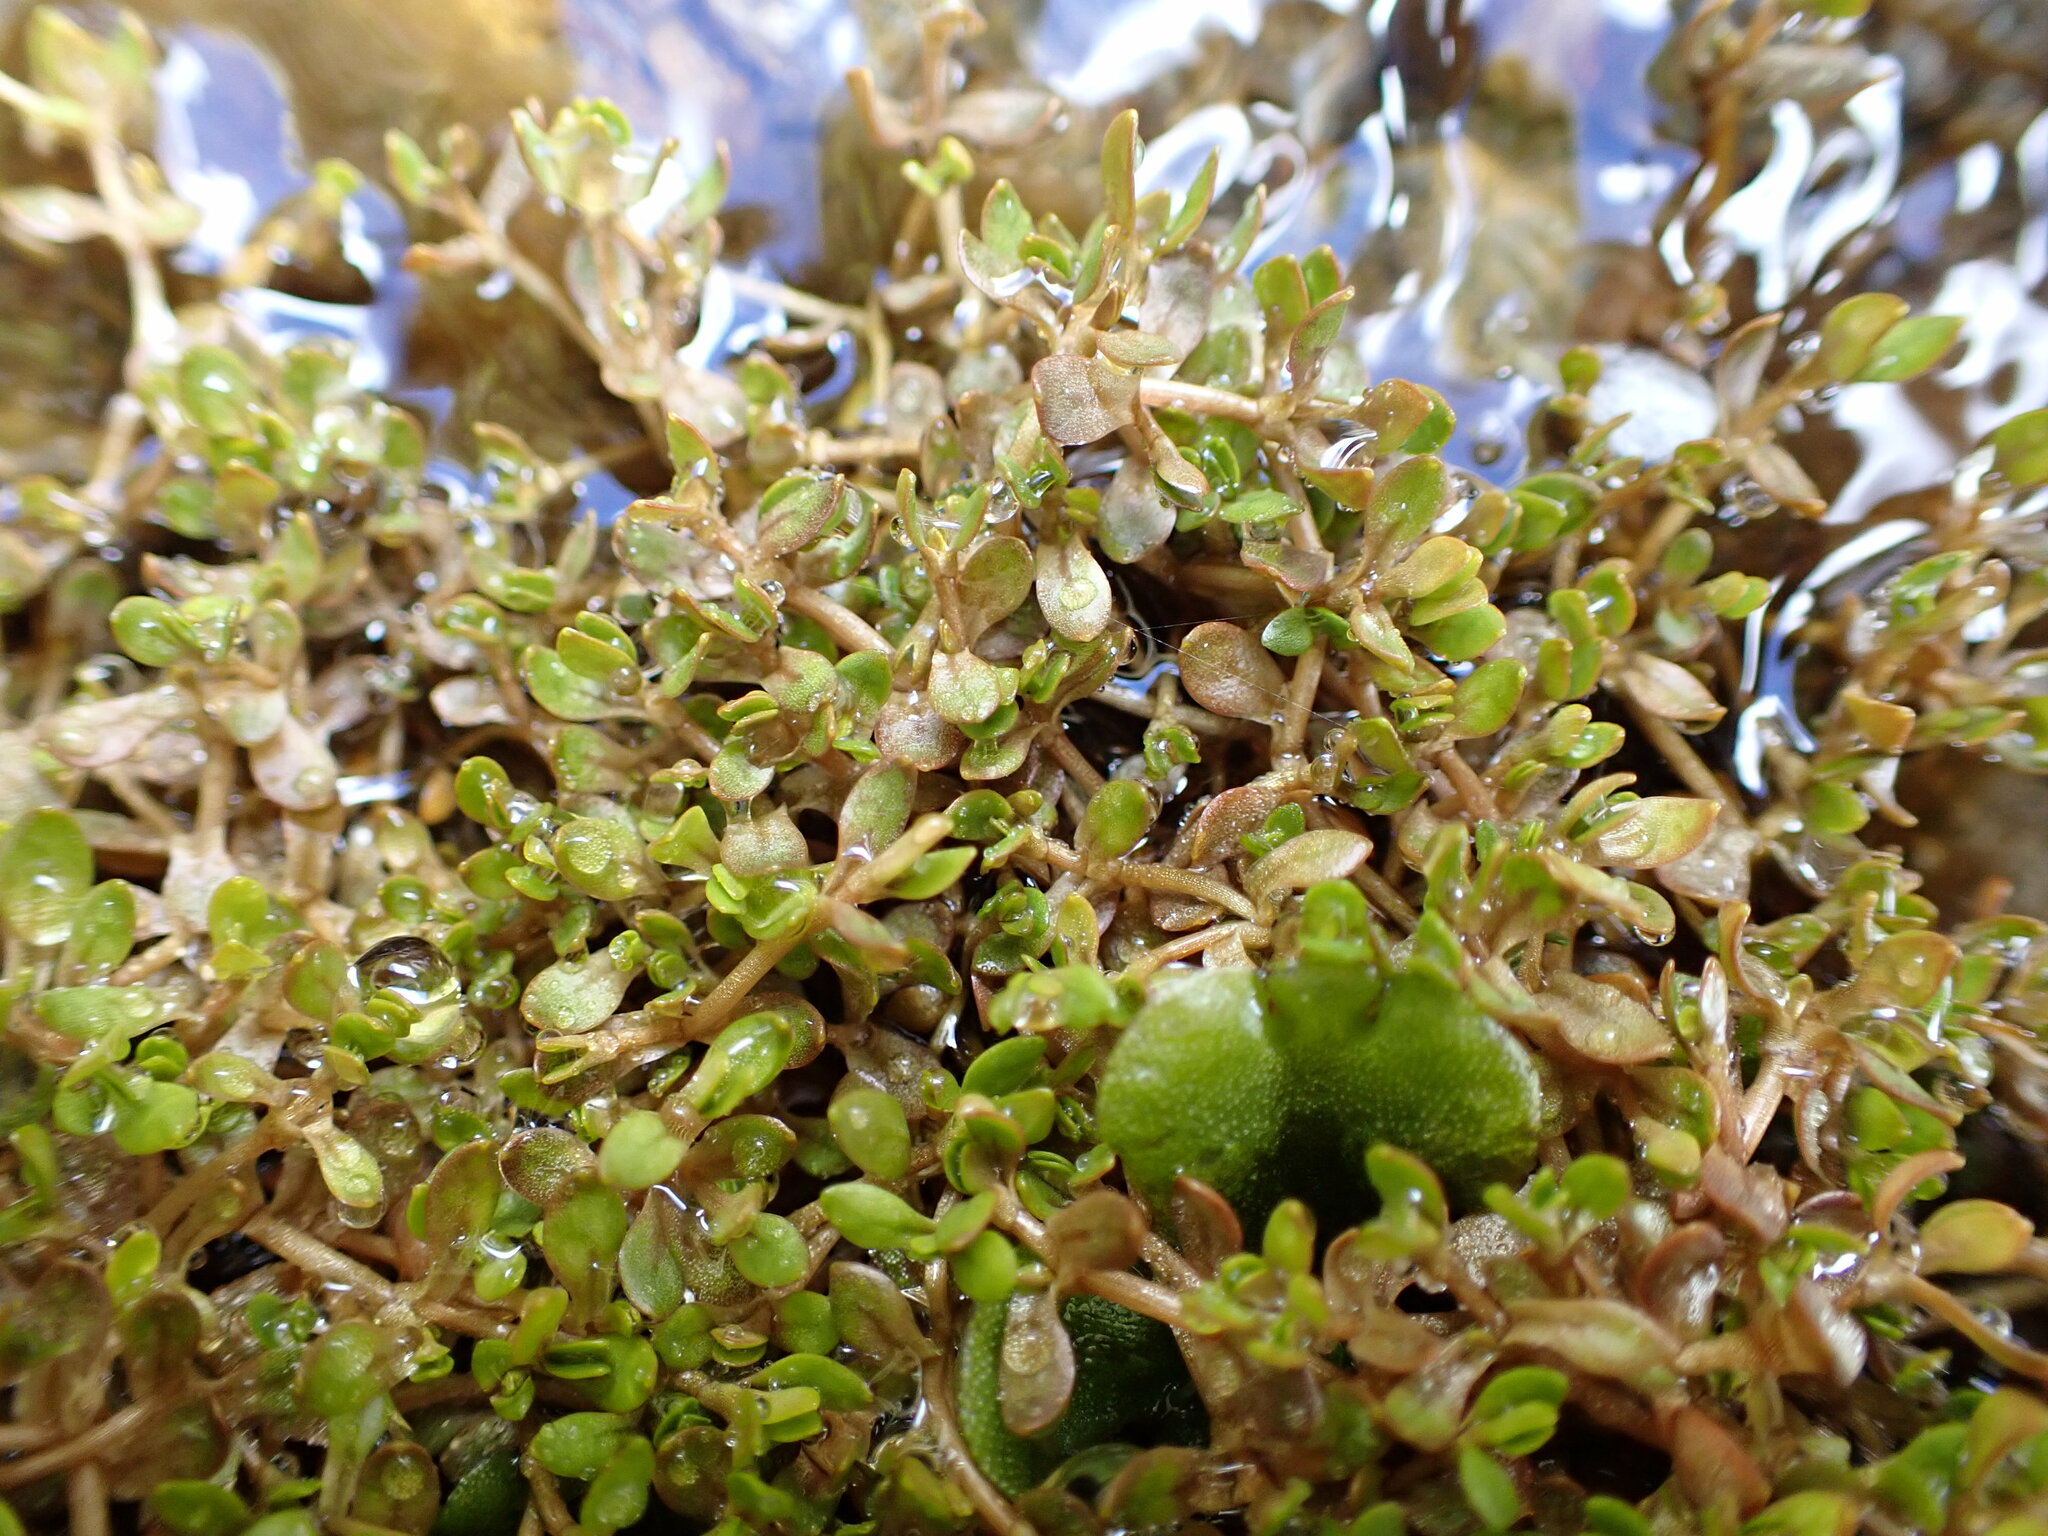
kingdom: Plantae
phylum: Tracheophyta
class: Magnoliopsida
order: Caryophyllales
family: Montiaceae
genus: Montia
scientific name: Montia fontana
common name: Blinks
